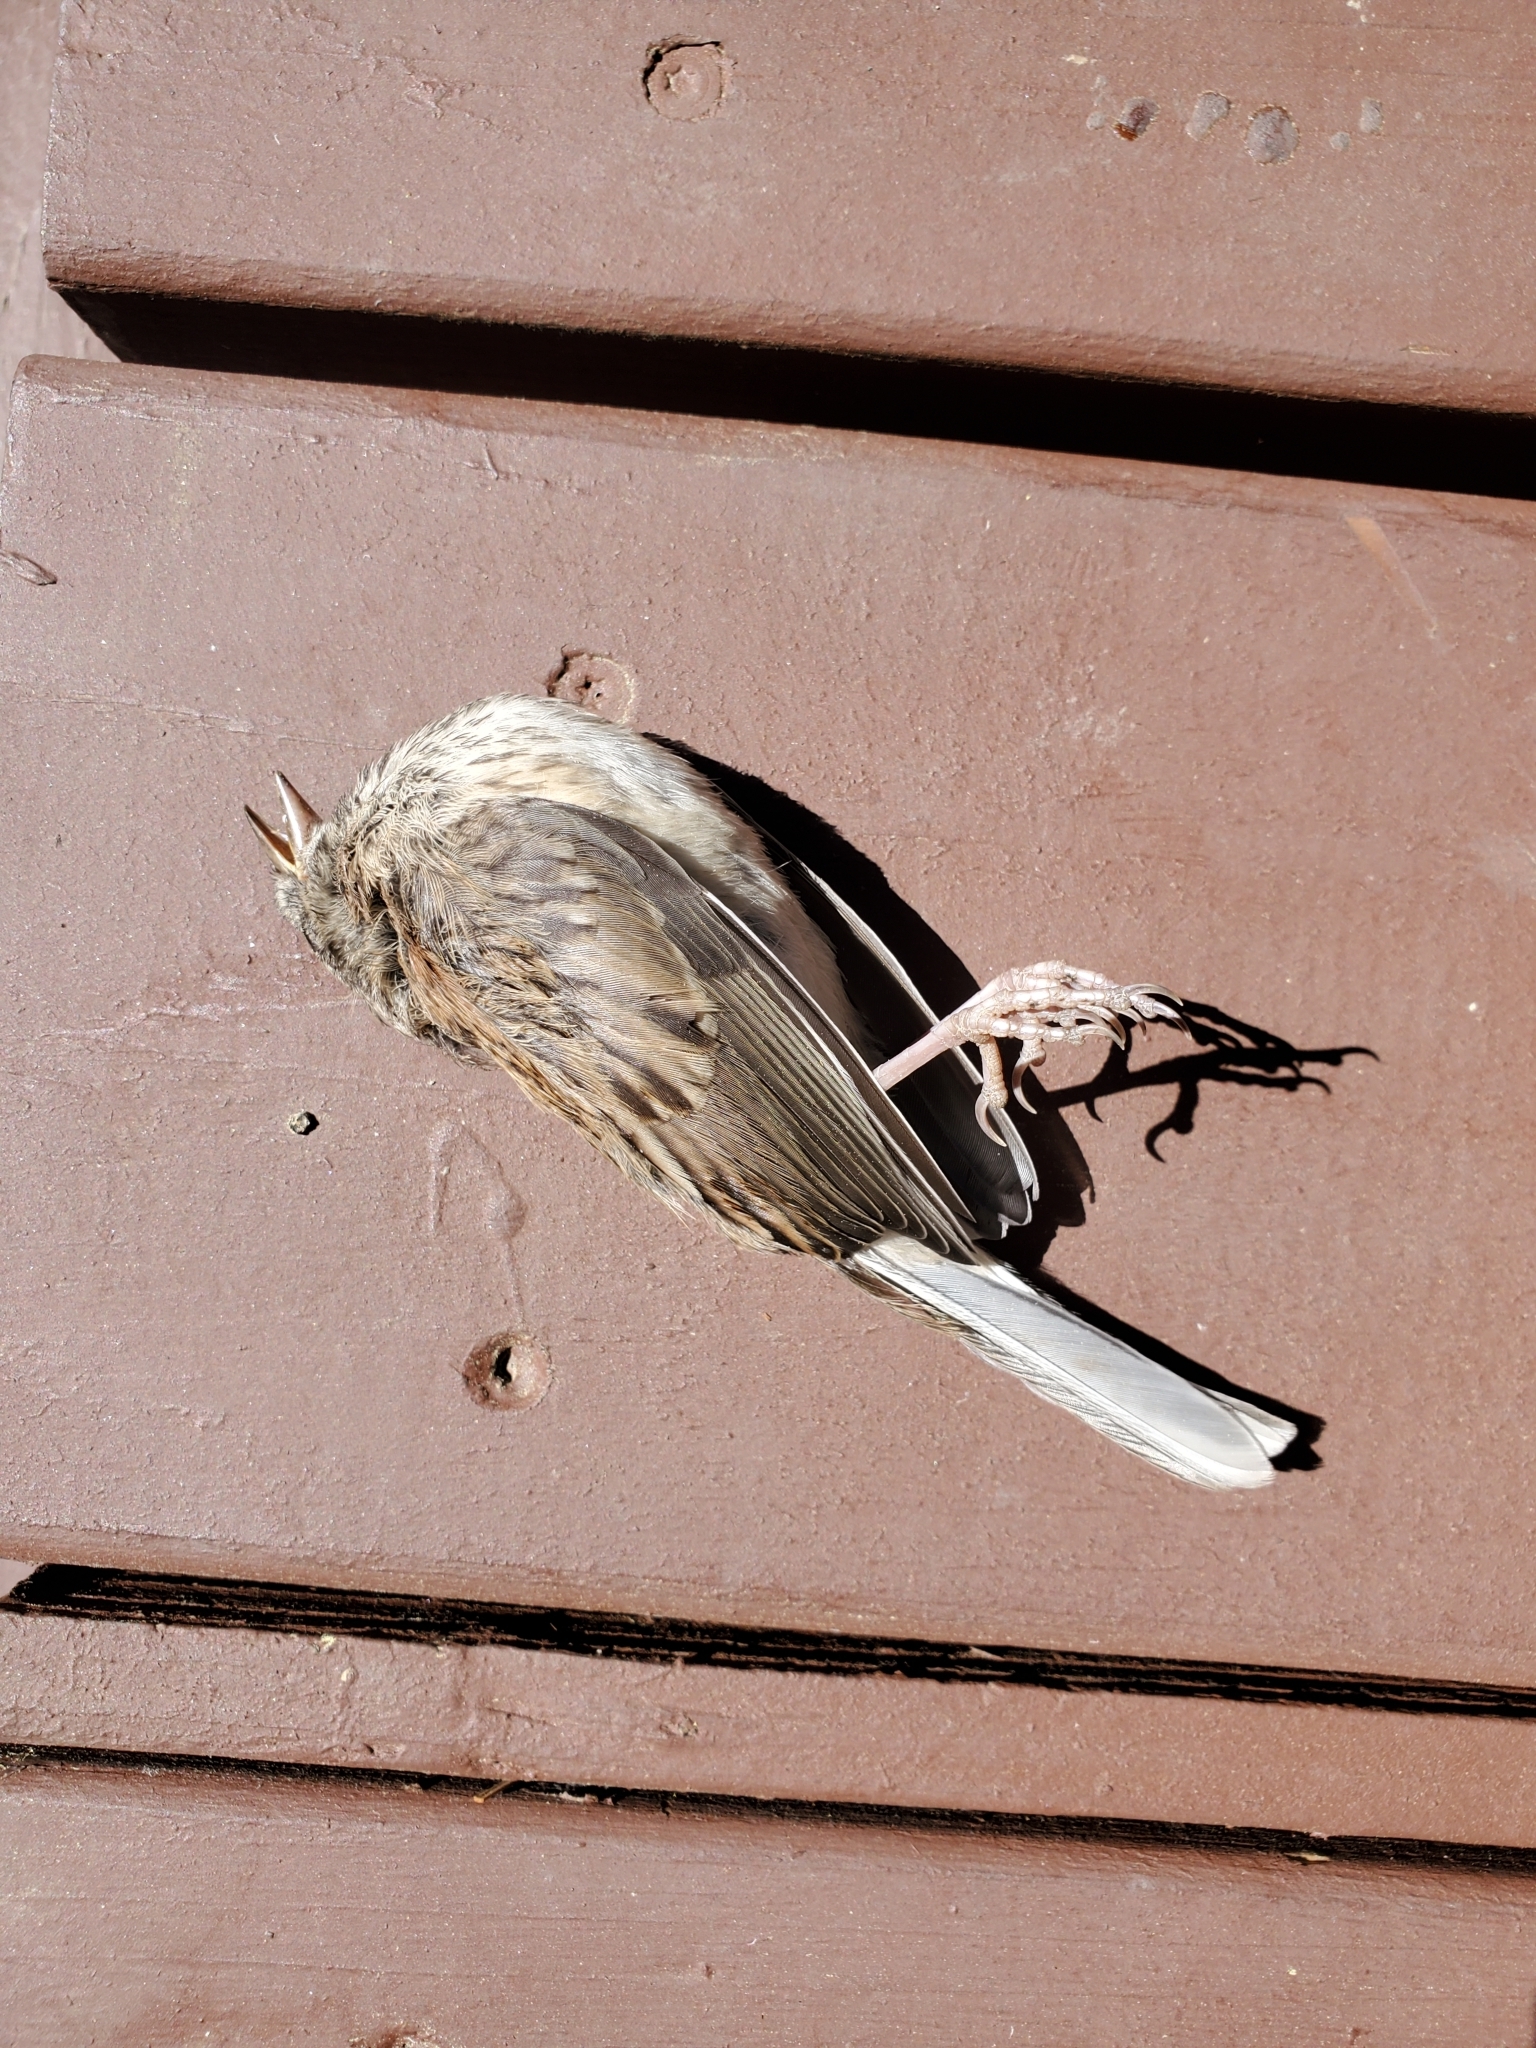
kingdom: Animalia
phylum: Chordata
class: Aves
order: Passeriformes
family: Passerellidae
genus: Junco
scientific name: Junco hyemalis
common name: Dark-eyed junco
